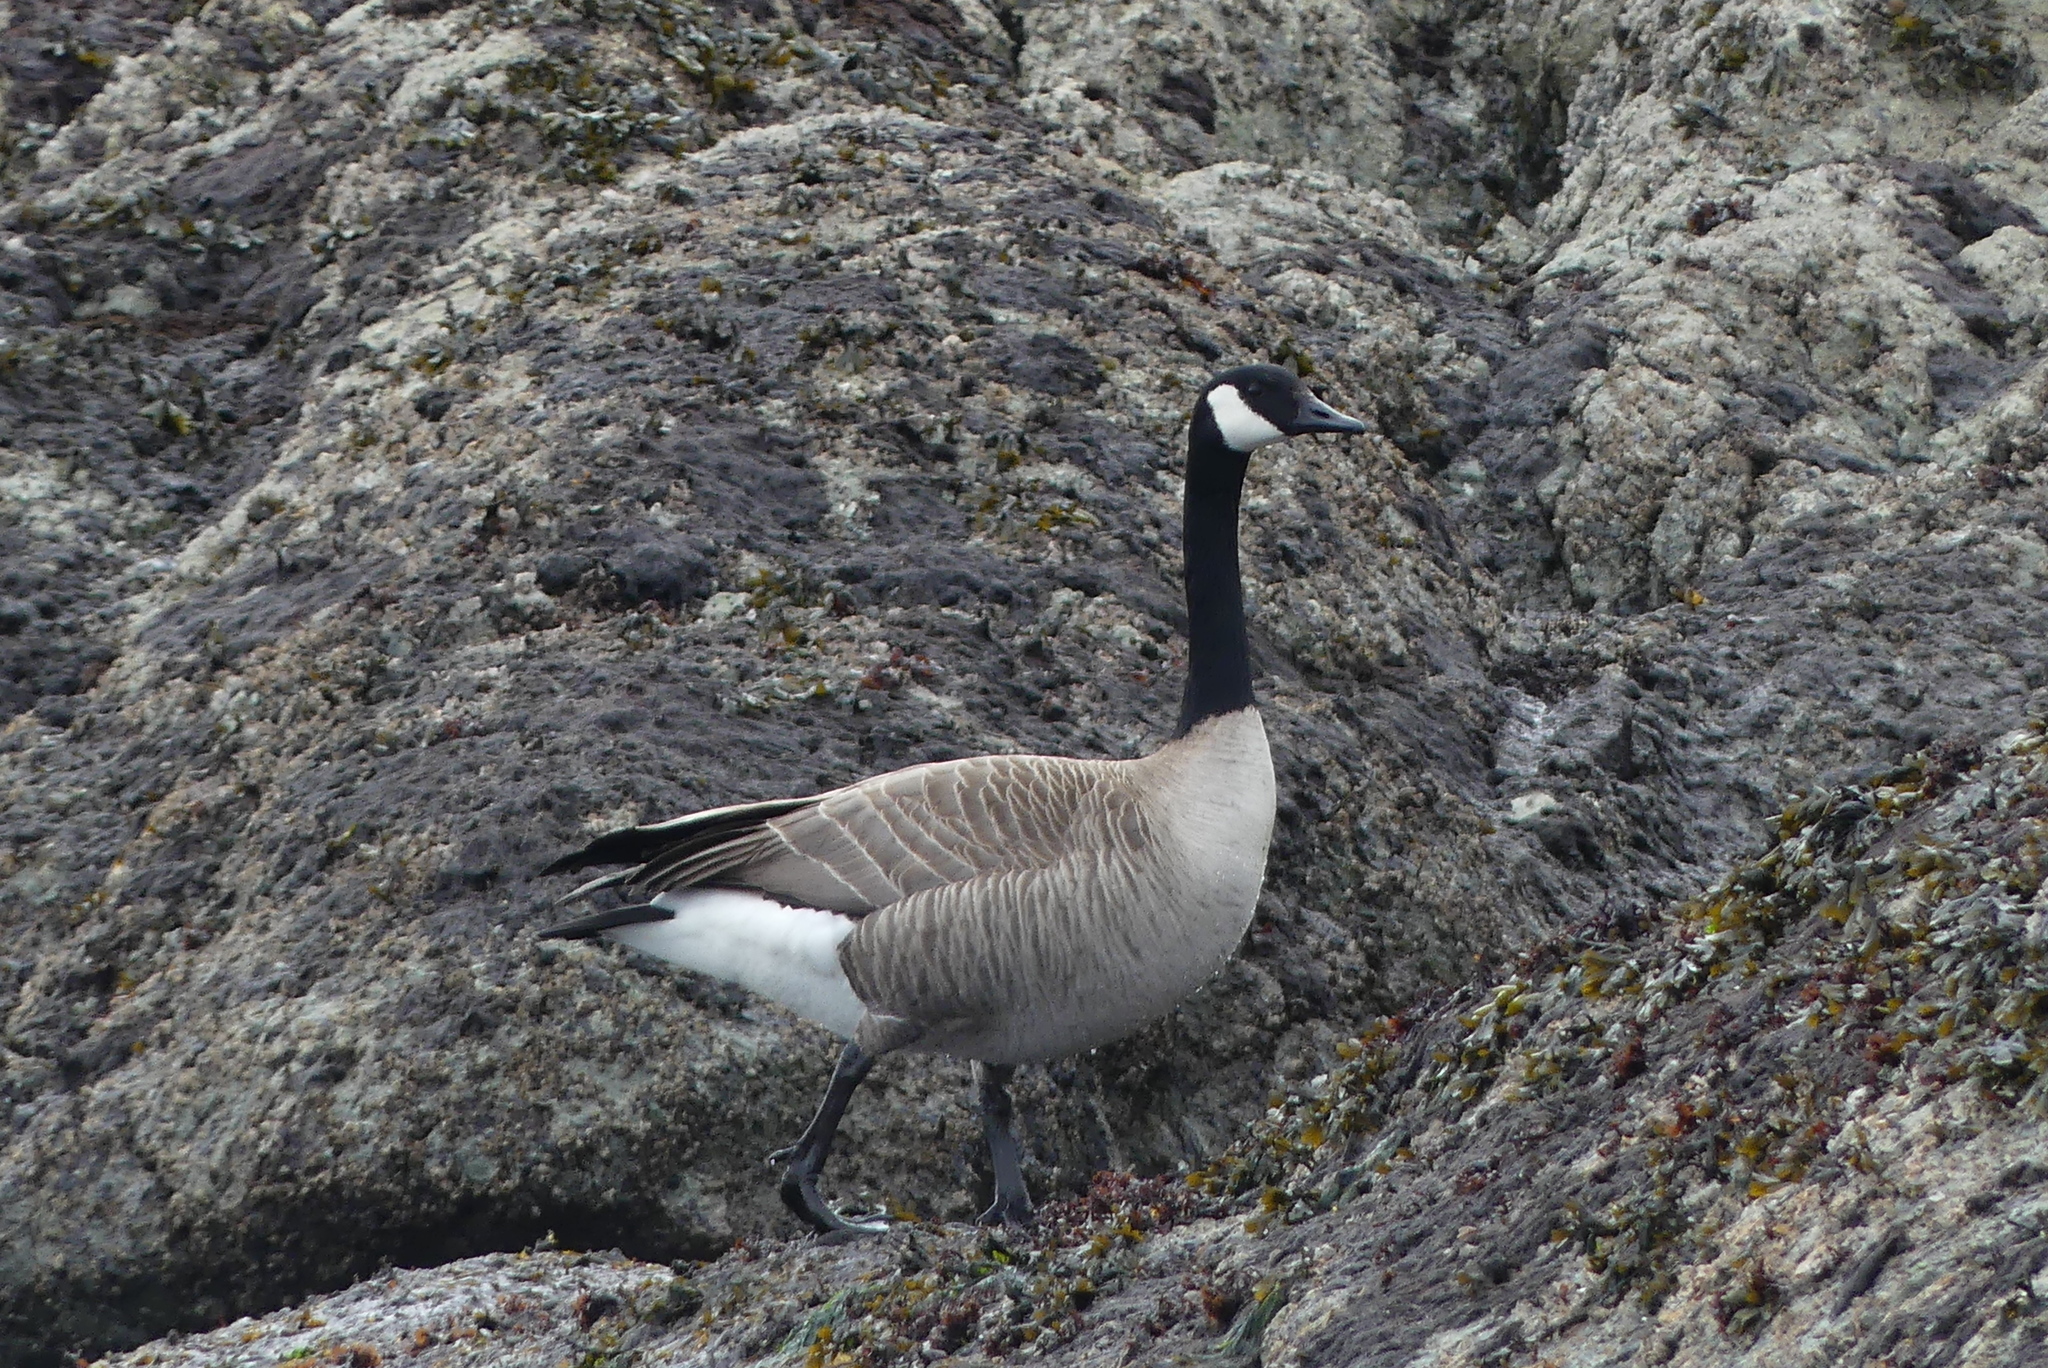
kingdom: Animalia
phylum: Chordata
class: Aves
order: Anseriformes
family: Anatidae
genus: Branta
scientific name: Branta canadensis
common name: Canada goose
